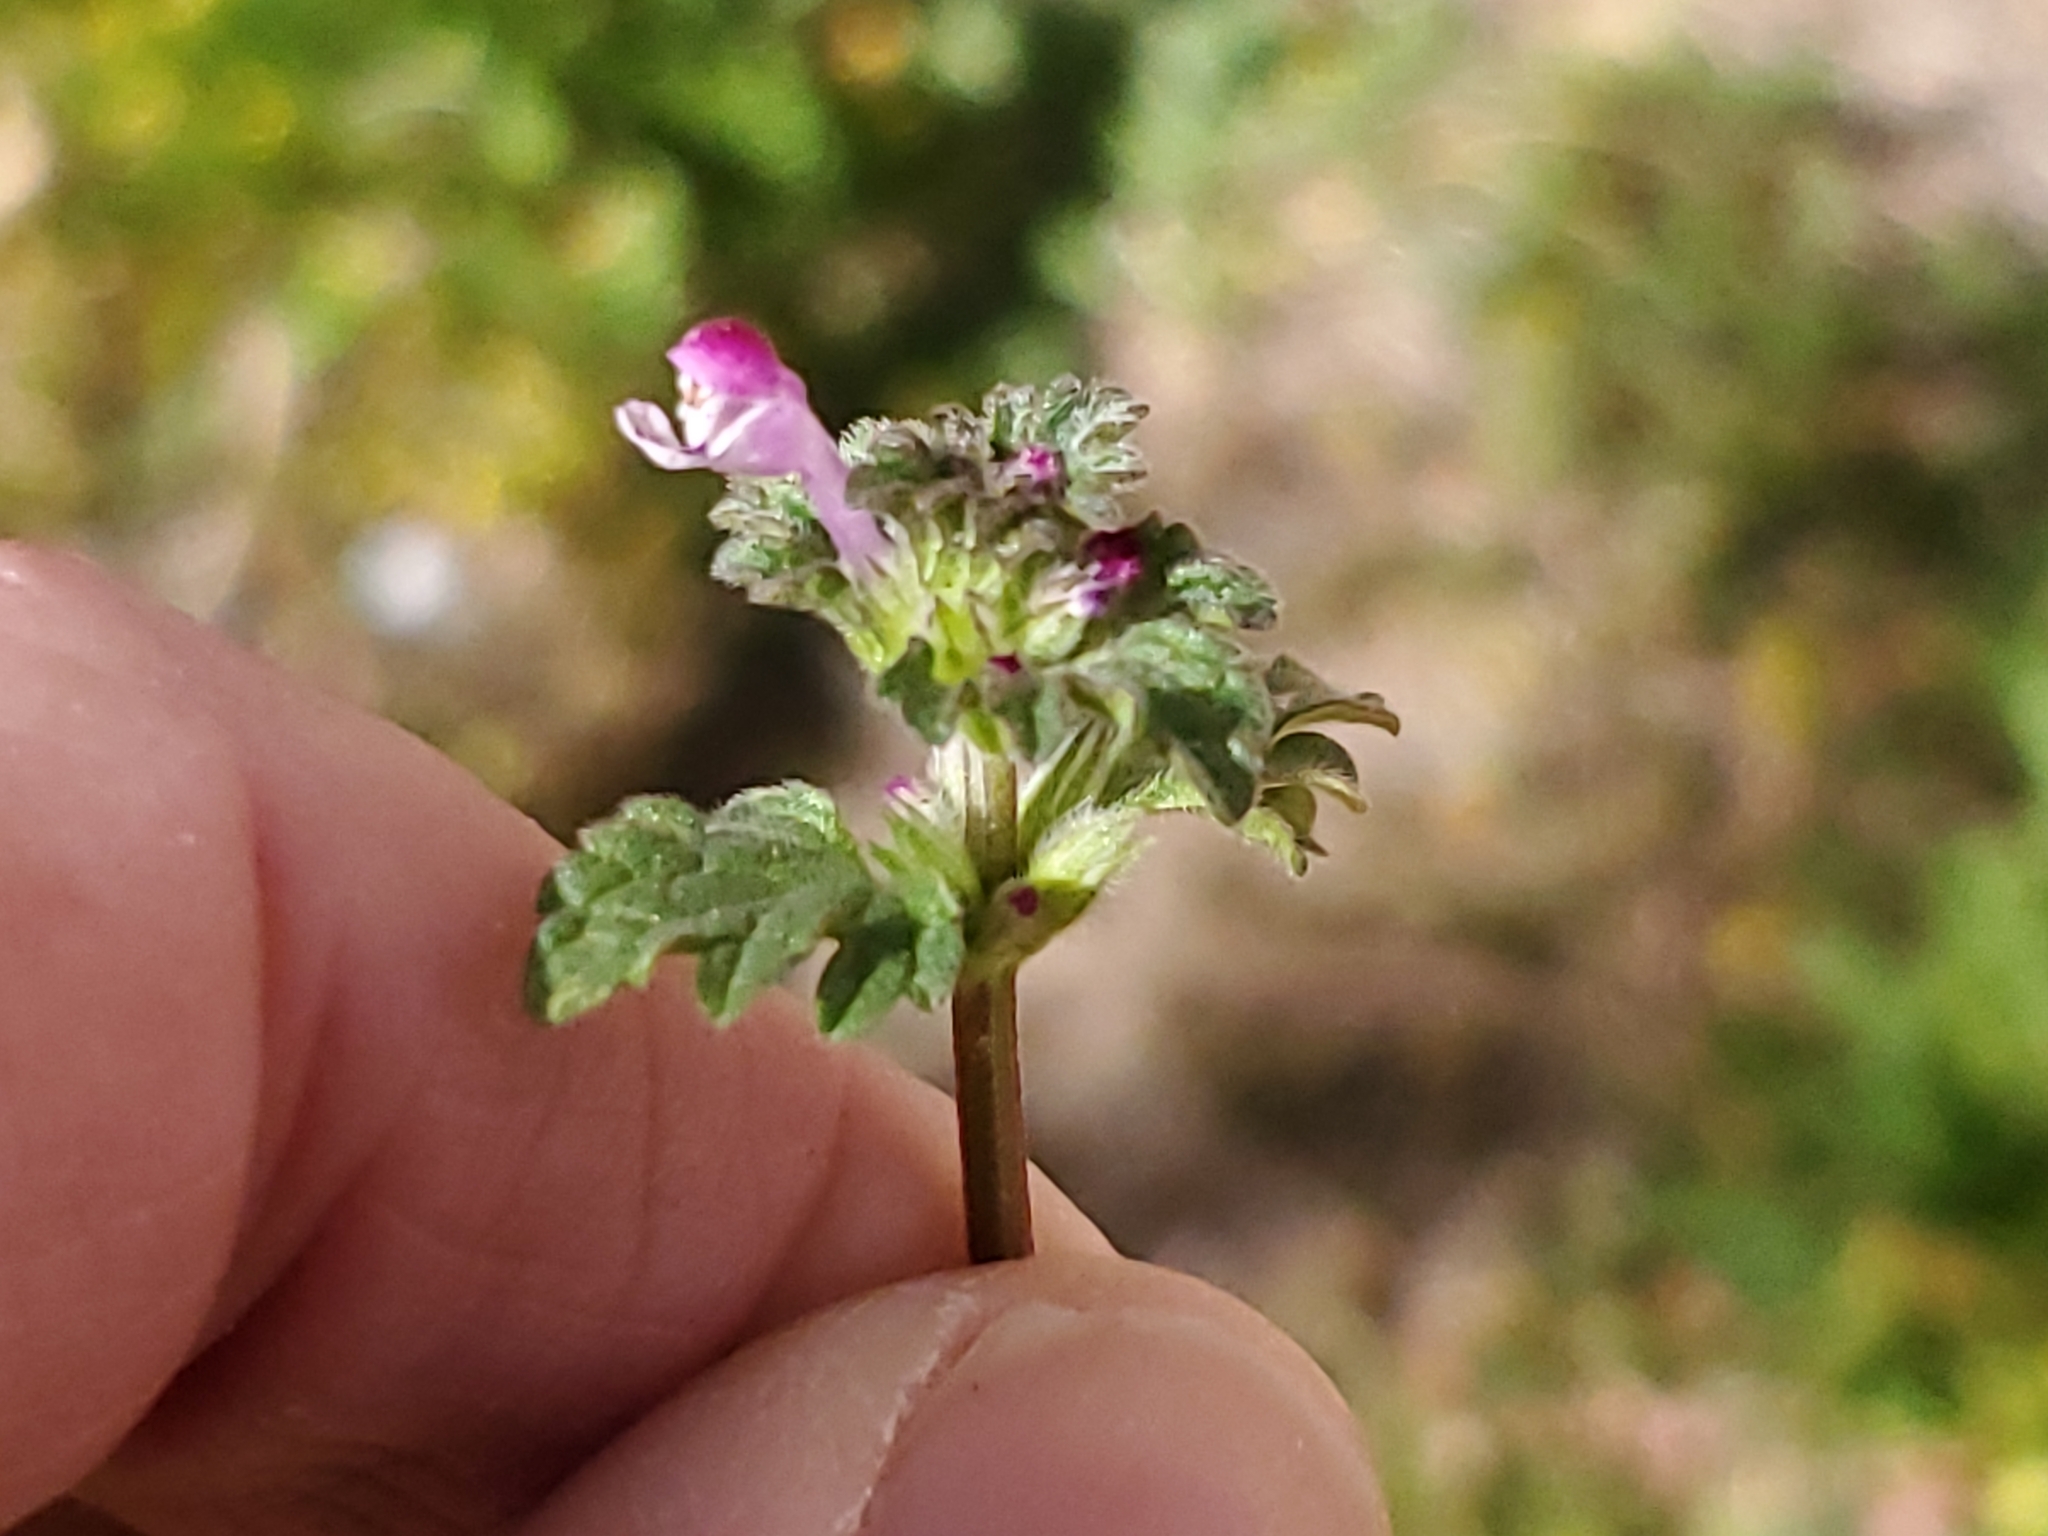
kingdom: Plantae
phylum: Tracheophyta
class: Magnoliopsida
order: Lamiales
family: Lamiaceae
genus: Lamium
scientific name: Lamium amplexicaule
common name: Henbit dead-nettle
